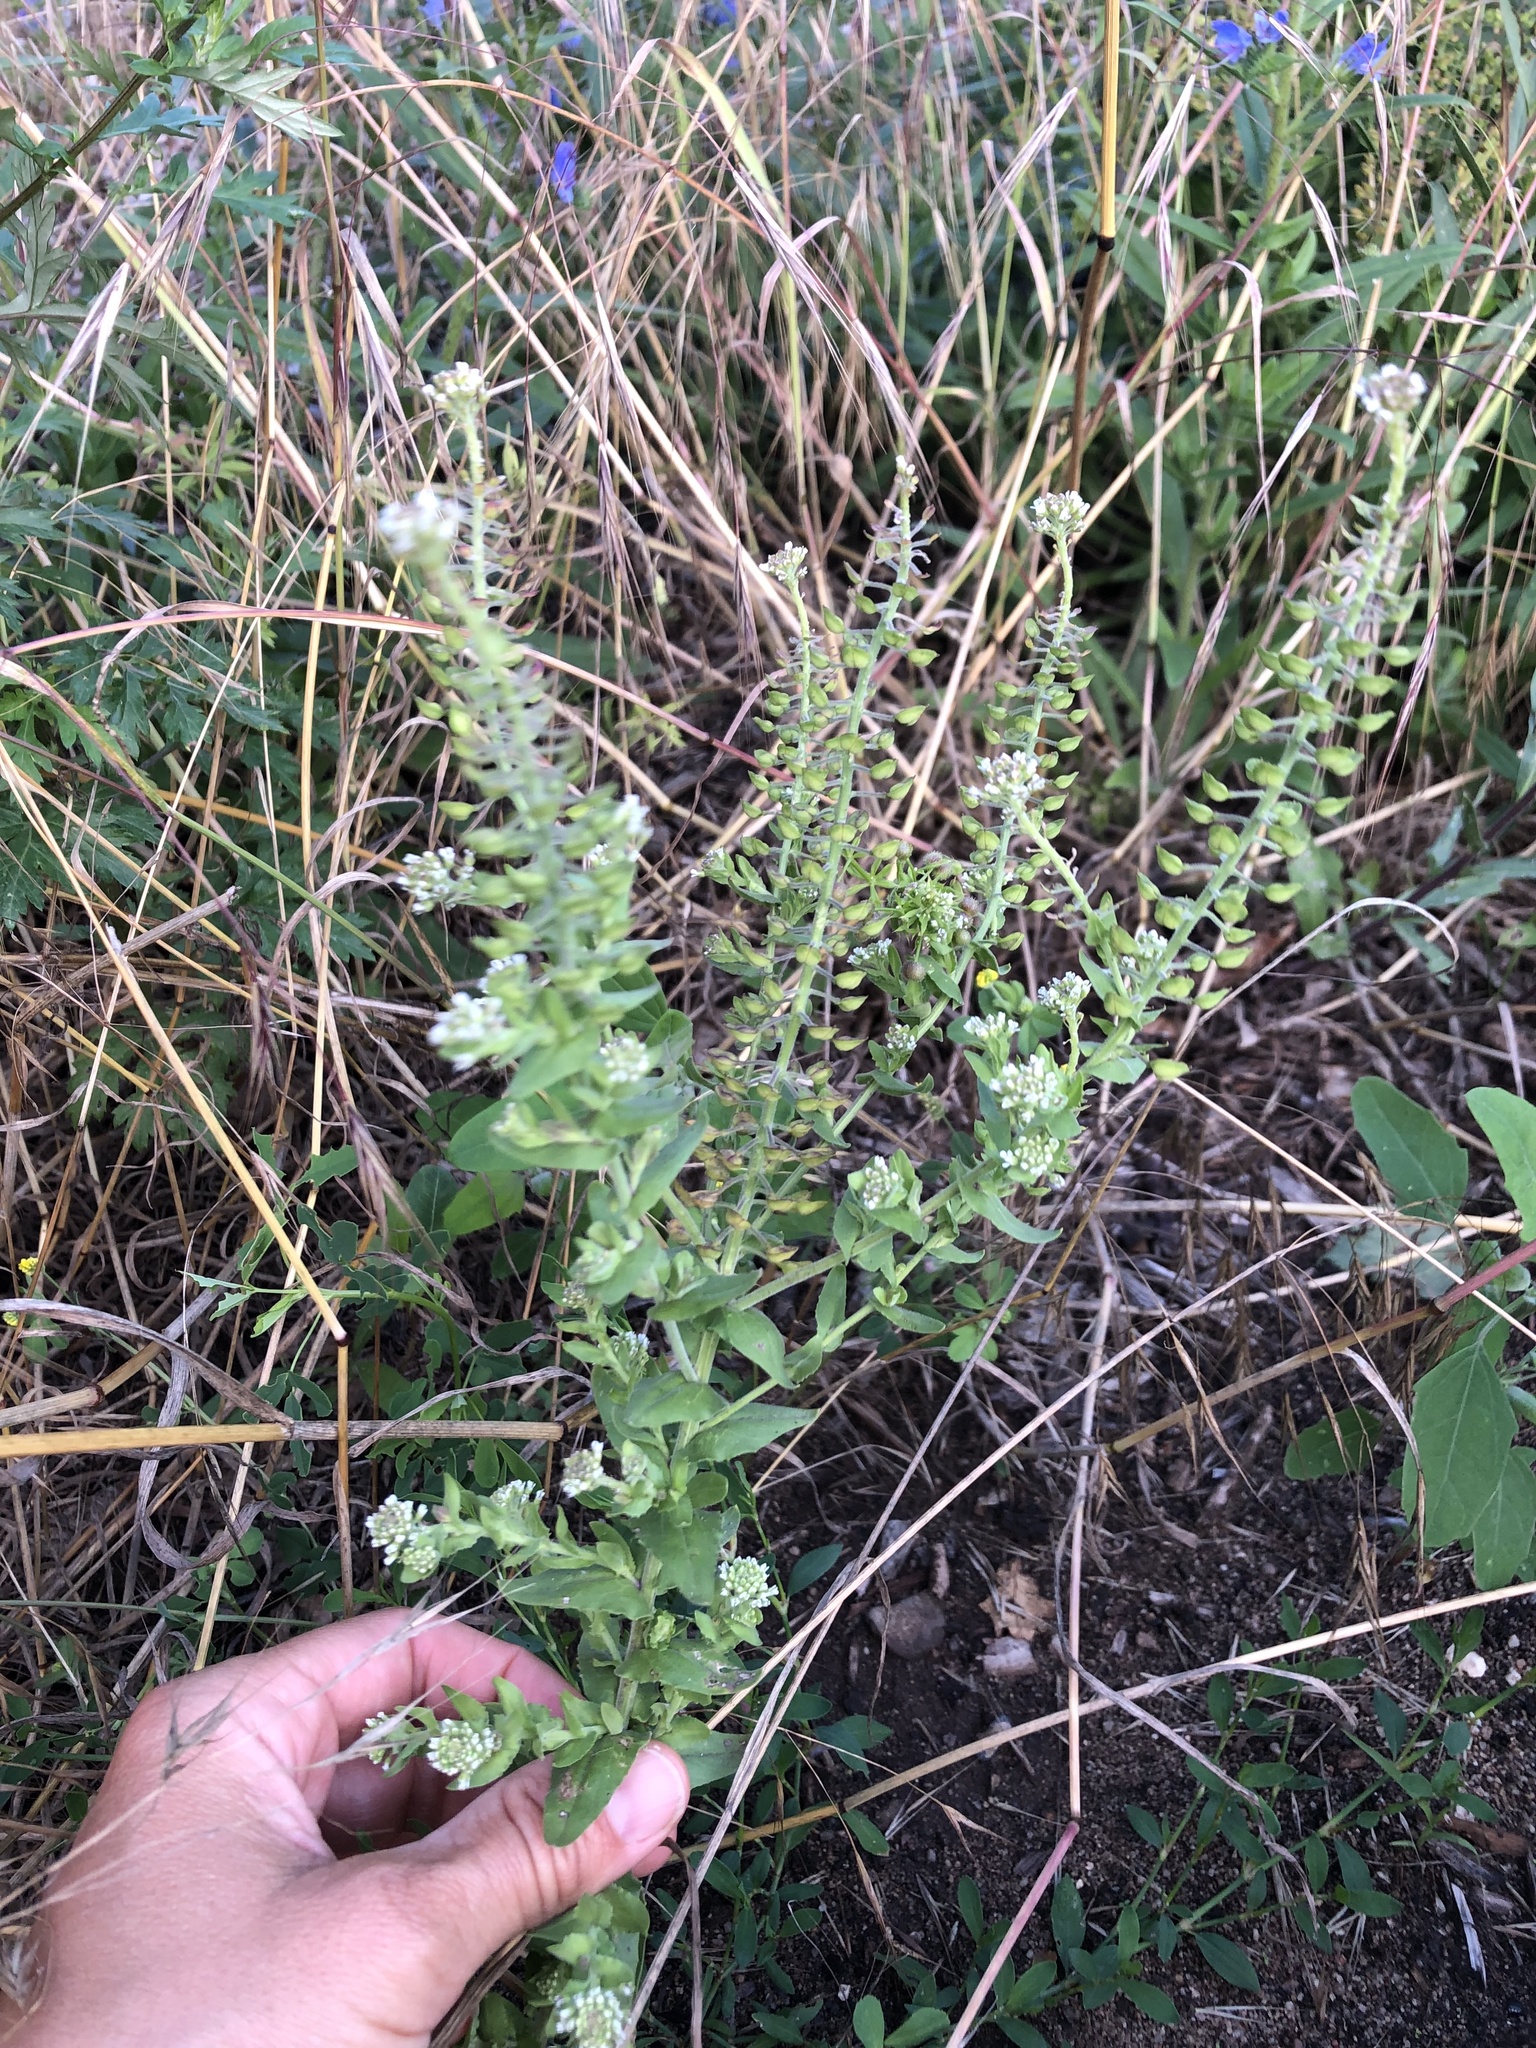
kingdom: Plantae
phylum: Tracheophyta
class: Magnoliopsida
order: Brassicales
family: Brassicaceae
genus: Lepidium
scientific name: Lepidium campestre
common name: Field pepperwort
